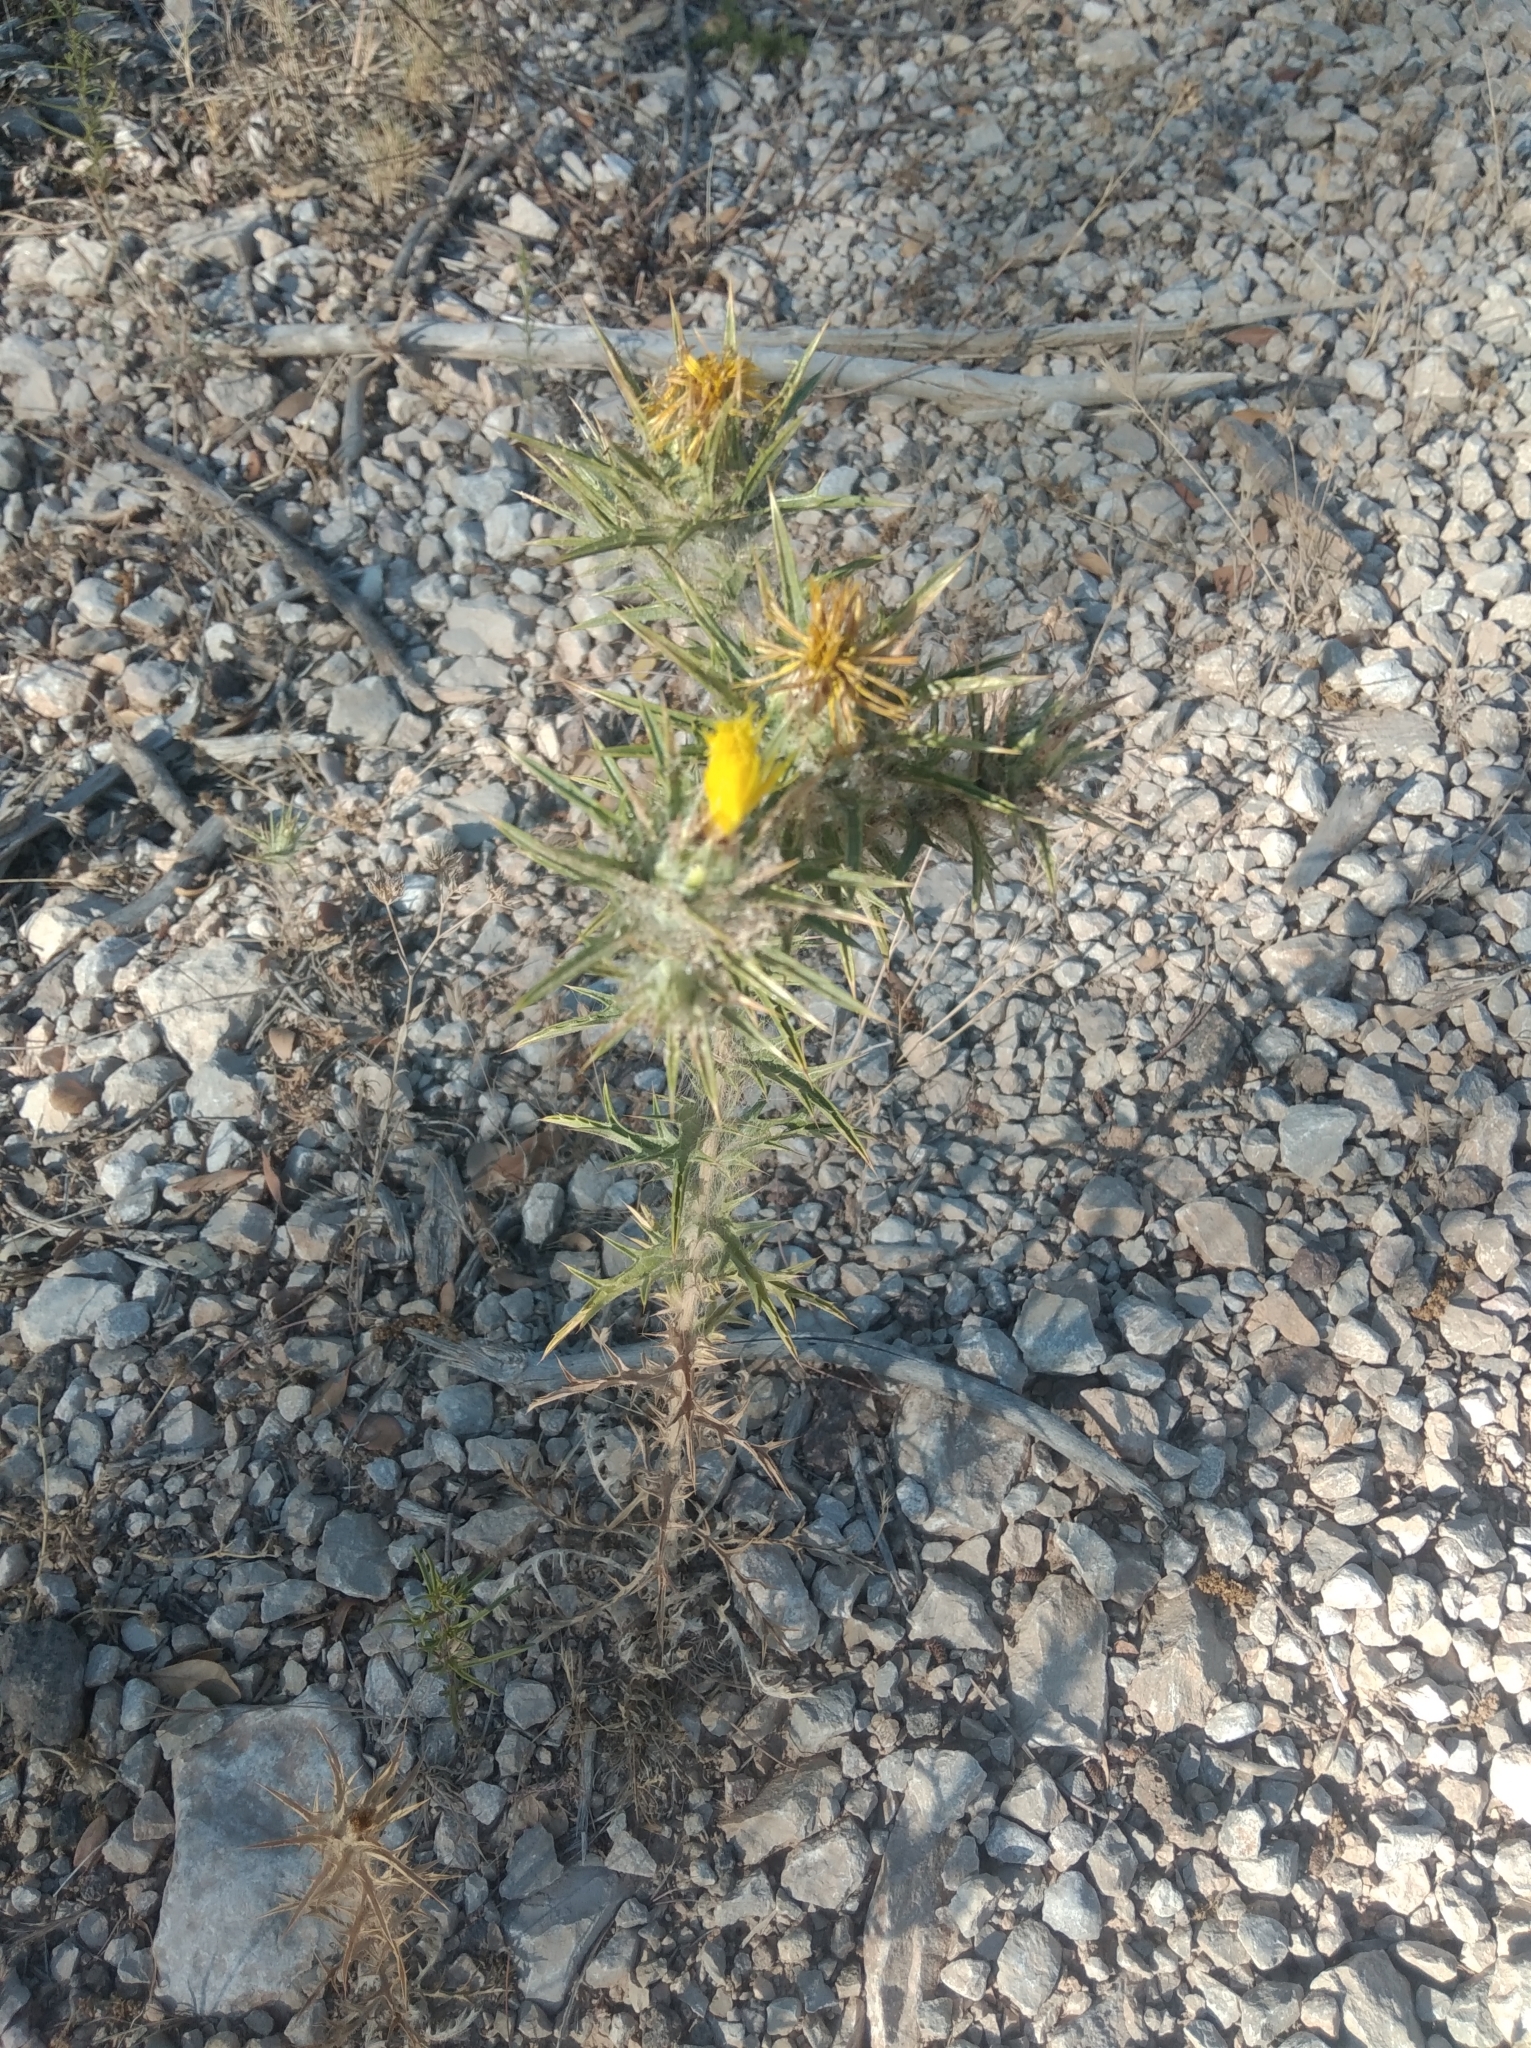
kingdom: Plantae
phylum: Tracheophyta
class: Magnoliopsida
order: Asterales
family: Asteraceae
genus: Carthamus
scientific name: Carthamus lanatus
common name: Downy safflower
